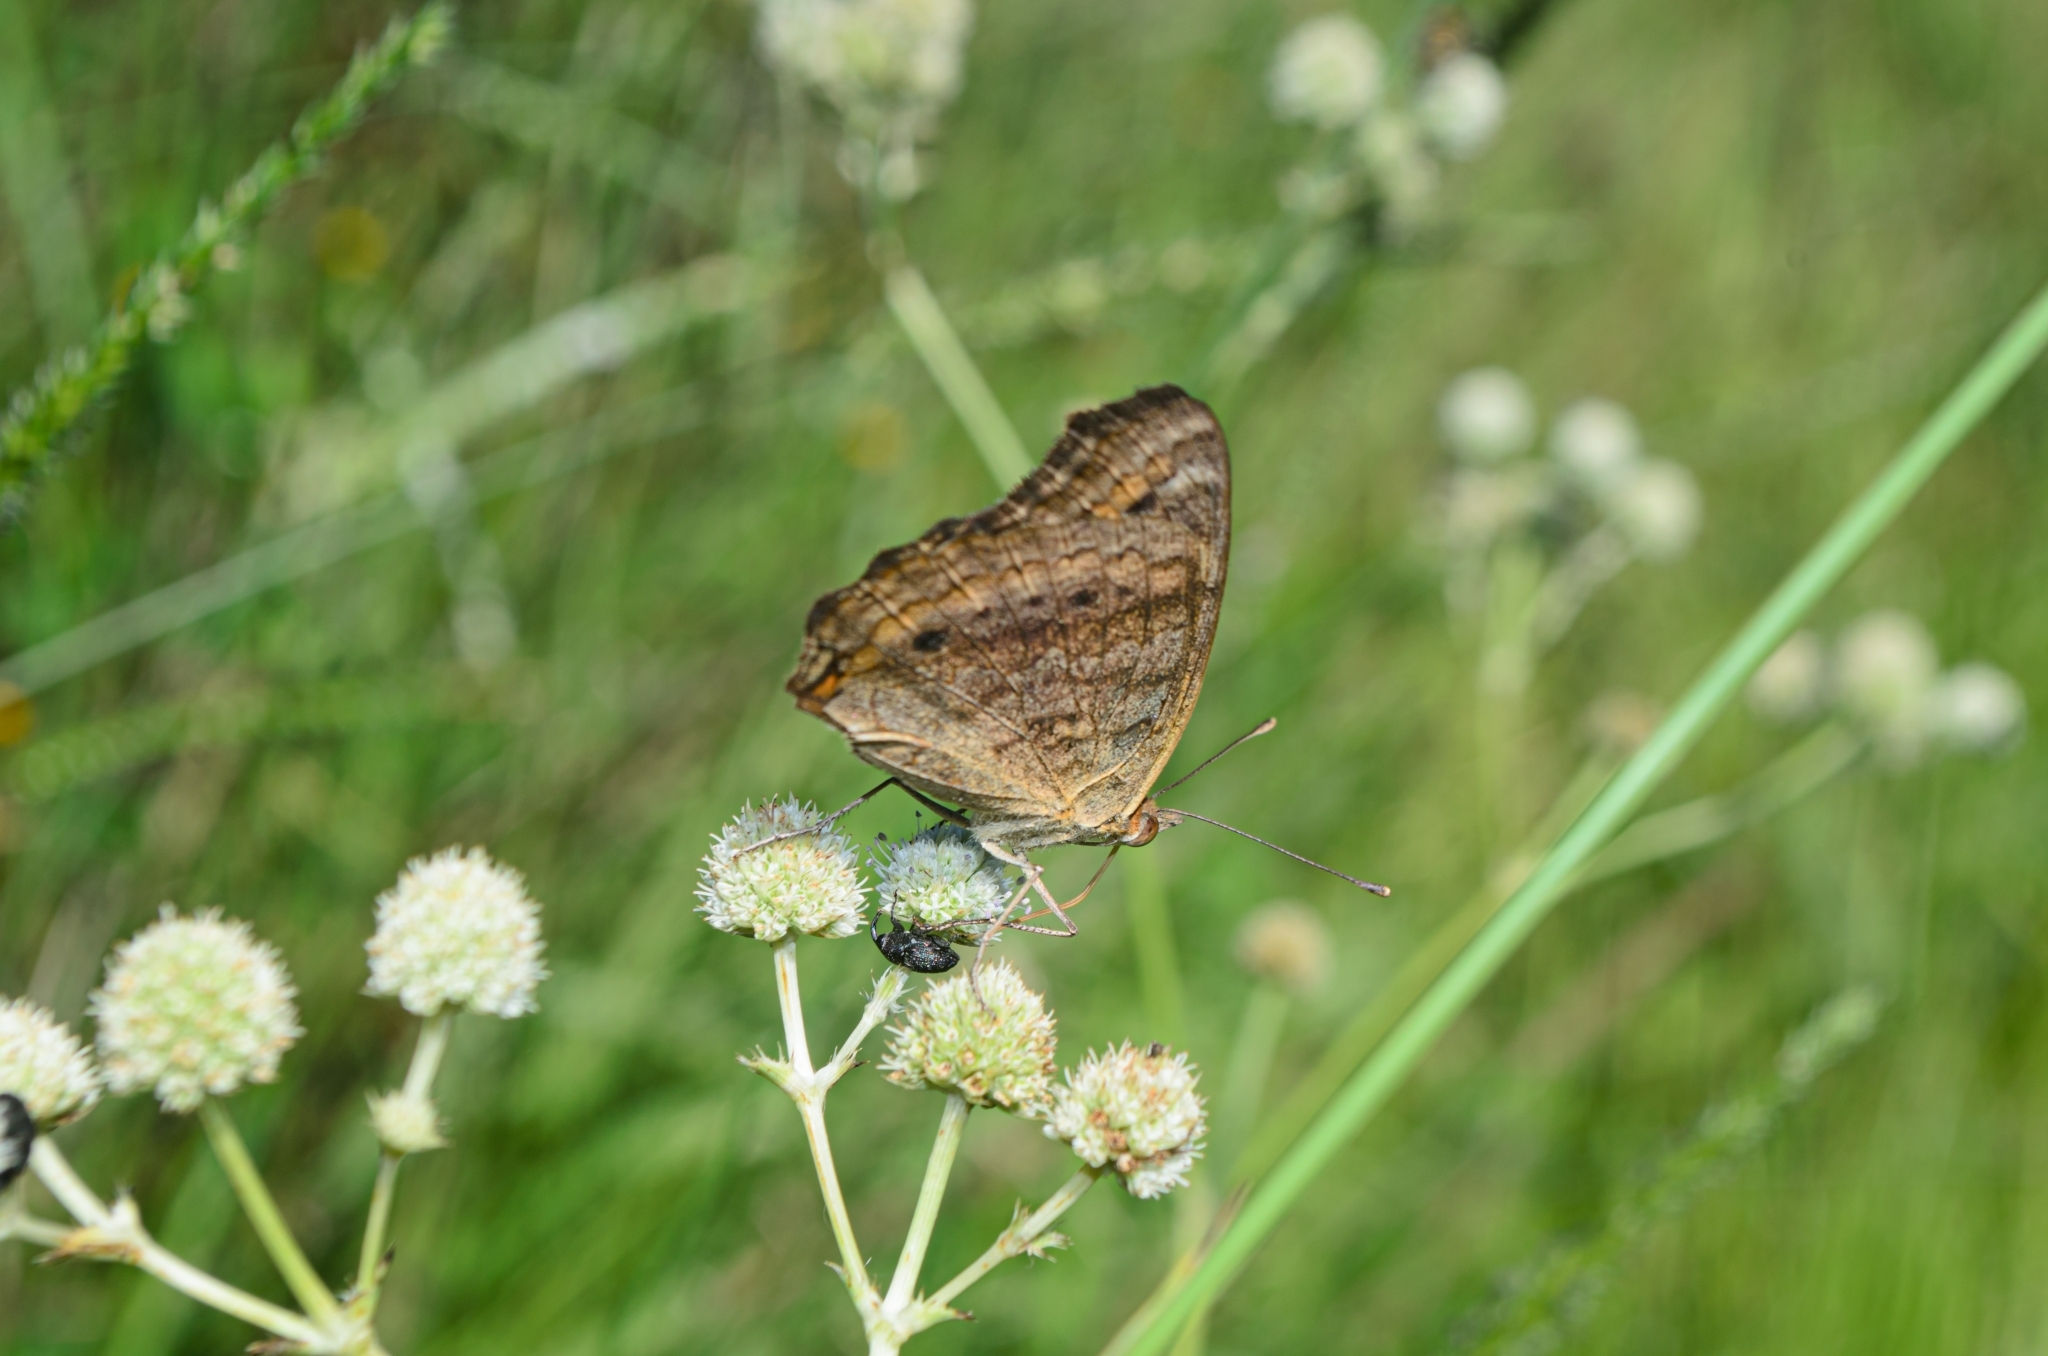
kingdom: Animalia
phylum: Arthropoda
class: Insecta
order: Lepidoptera
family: Nymphalidae
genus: Junonia
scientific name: Junonia evarete
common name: Black mangrove buckeye
